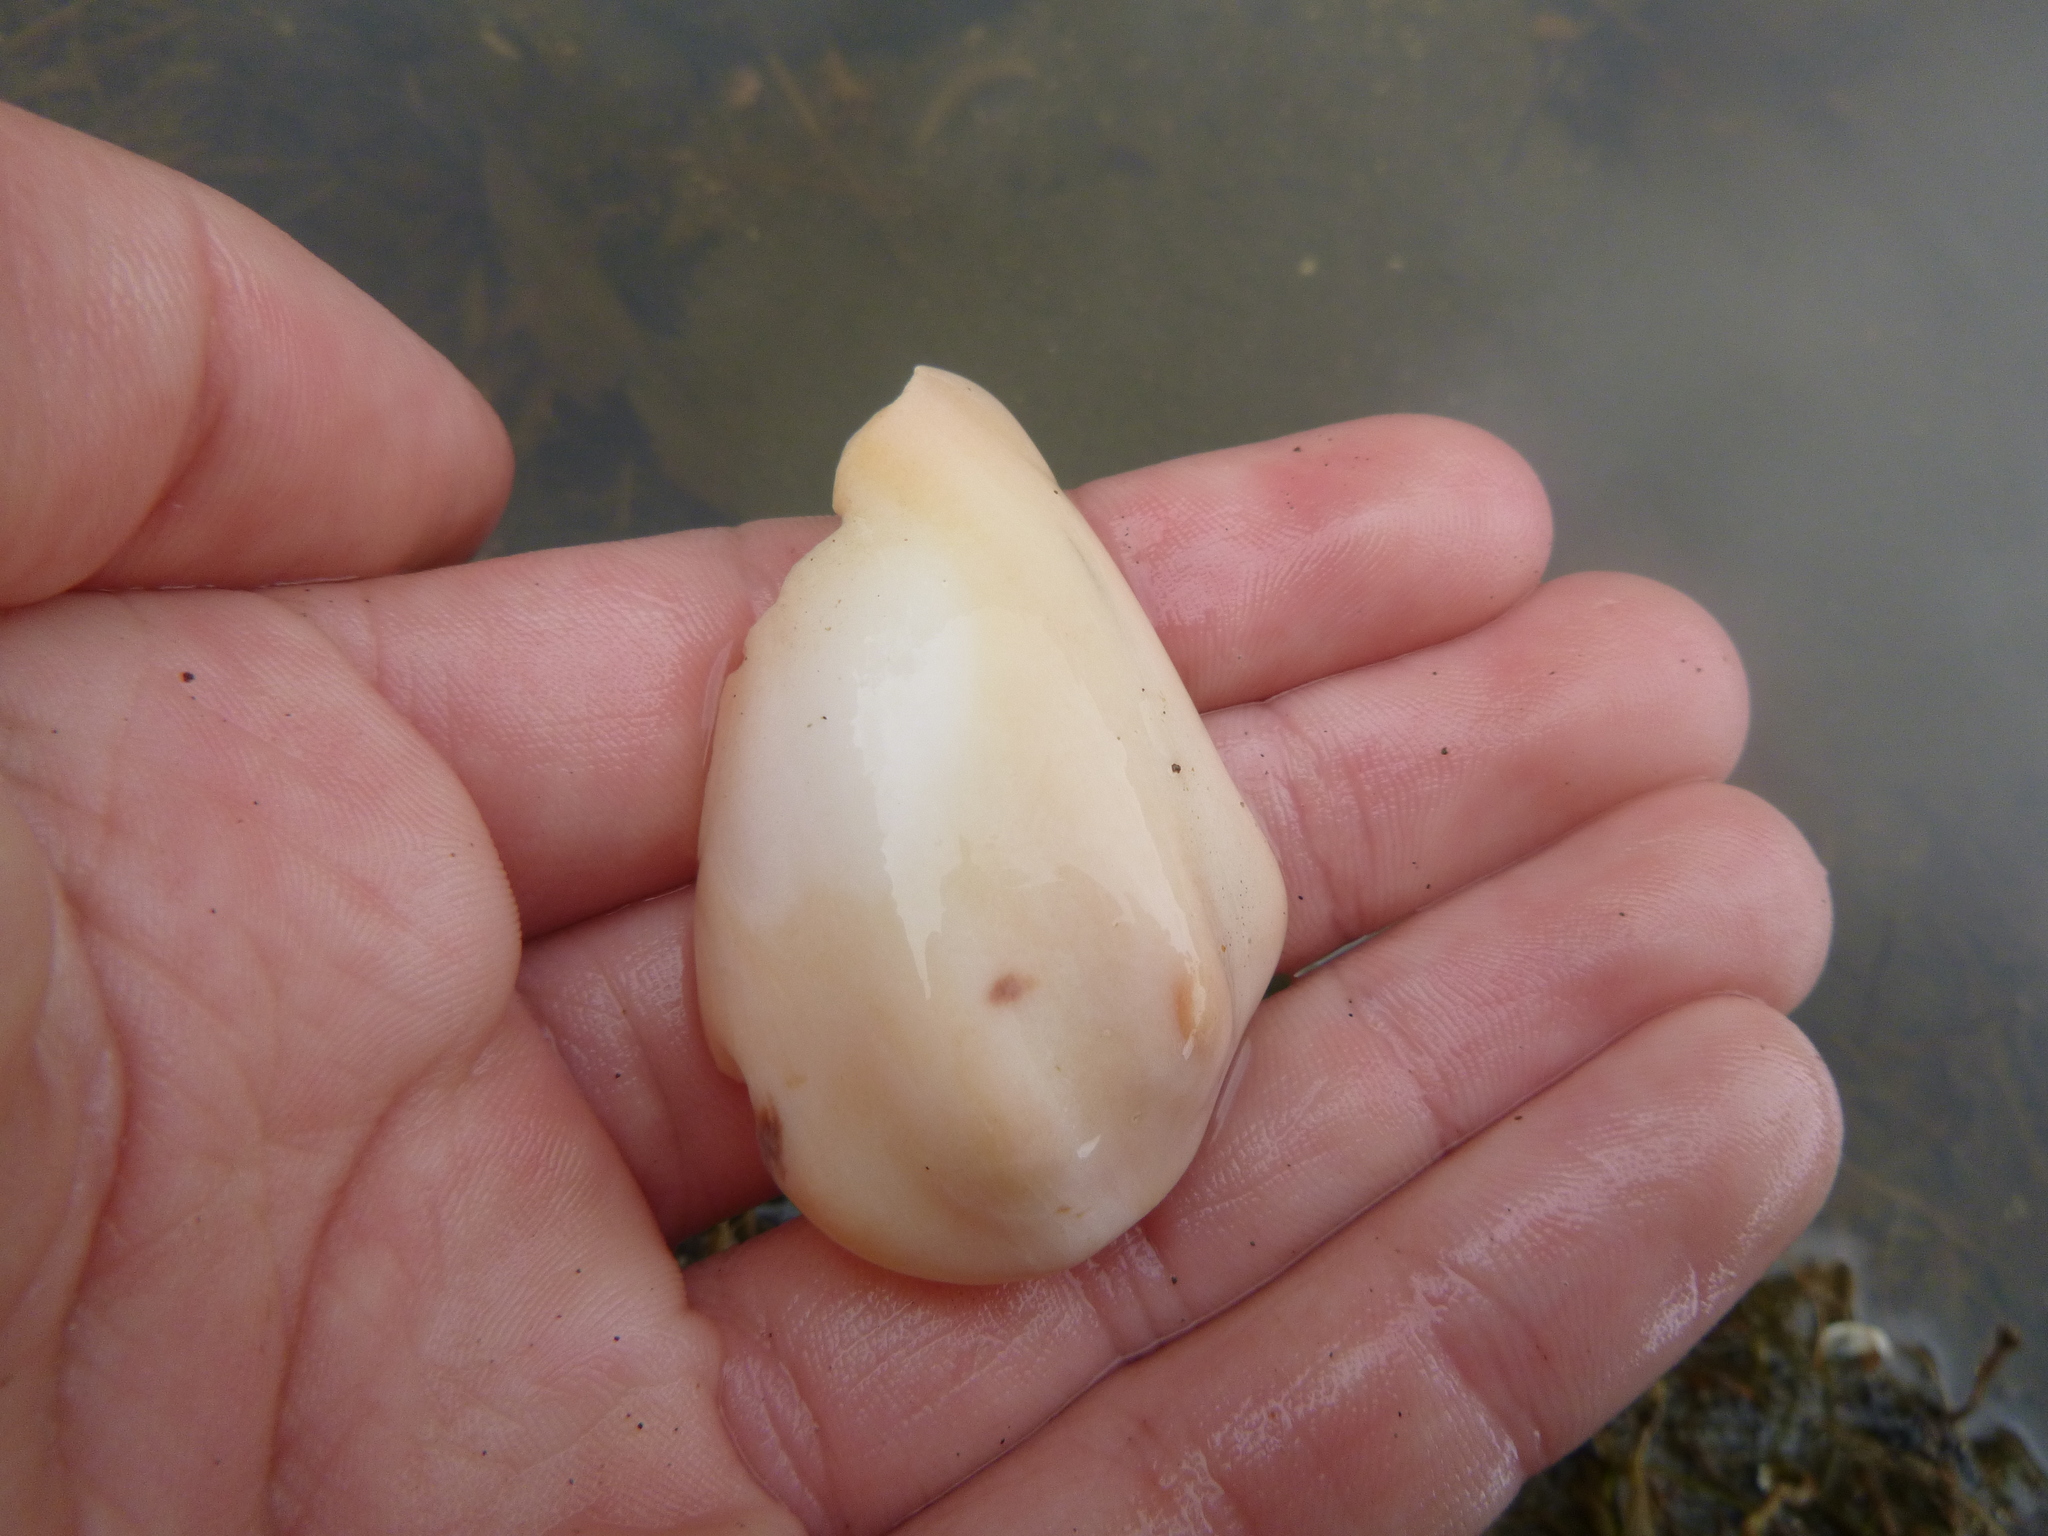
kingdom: Animalia
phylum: Mollusca
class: Gastropoda
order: Neogastropoda
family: Volutidae
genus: Alcithoe
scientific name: Alcithoe arabica
